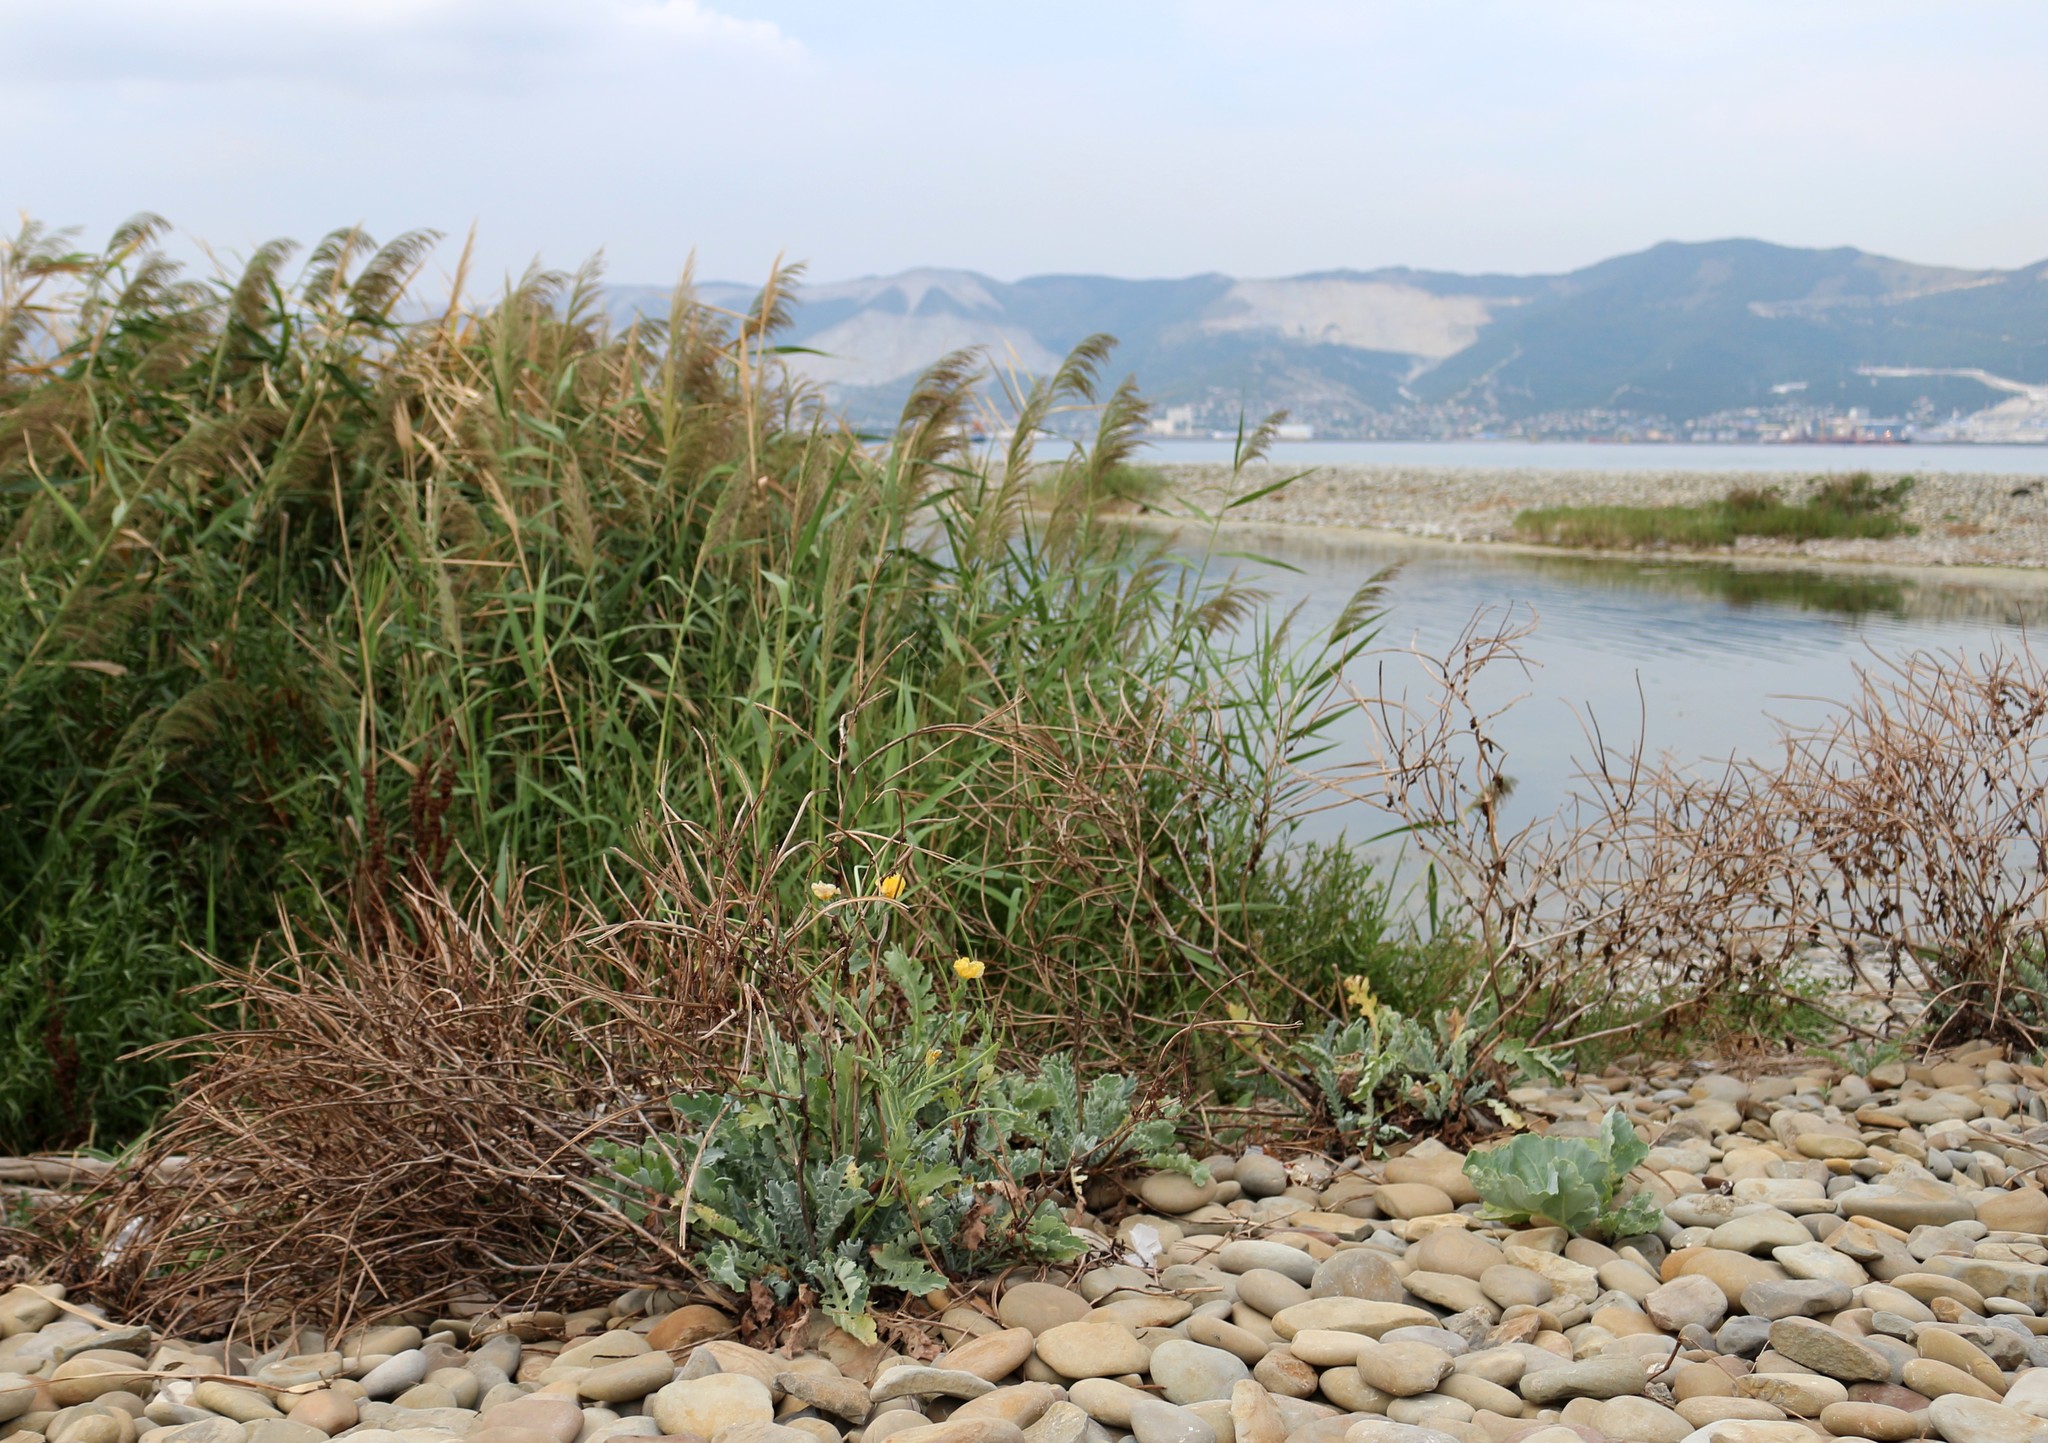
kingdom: Plantae
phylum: Tracheophyta
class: Magnoliopsida
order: Ranunculales
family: Papaveraceae
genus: Glaucium
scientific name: Glaucium flavum
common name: Yellow horned-poppy
